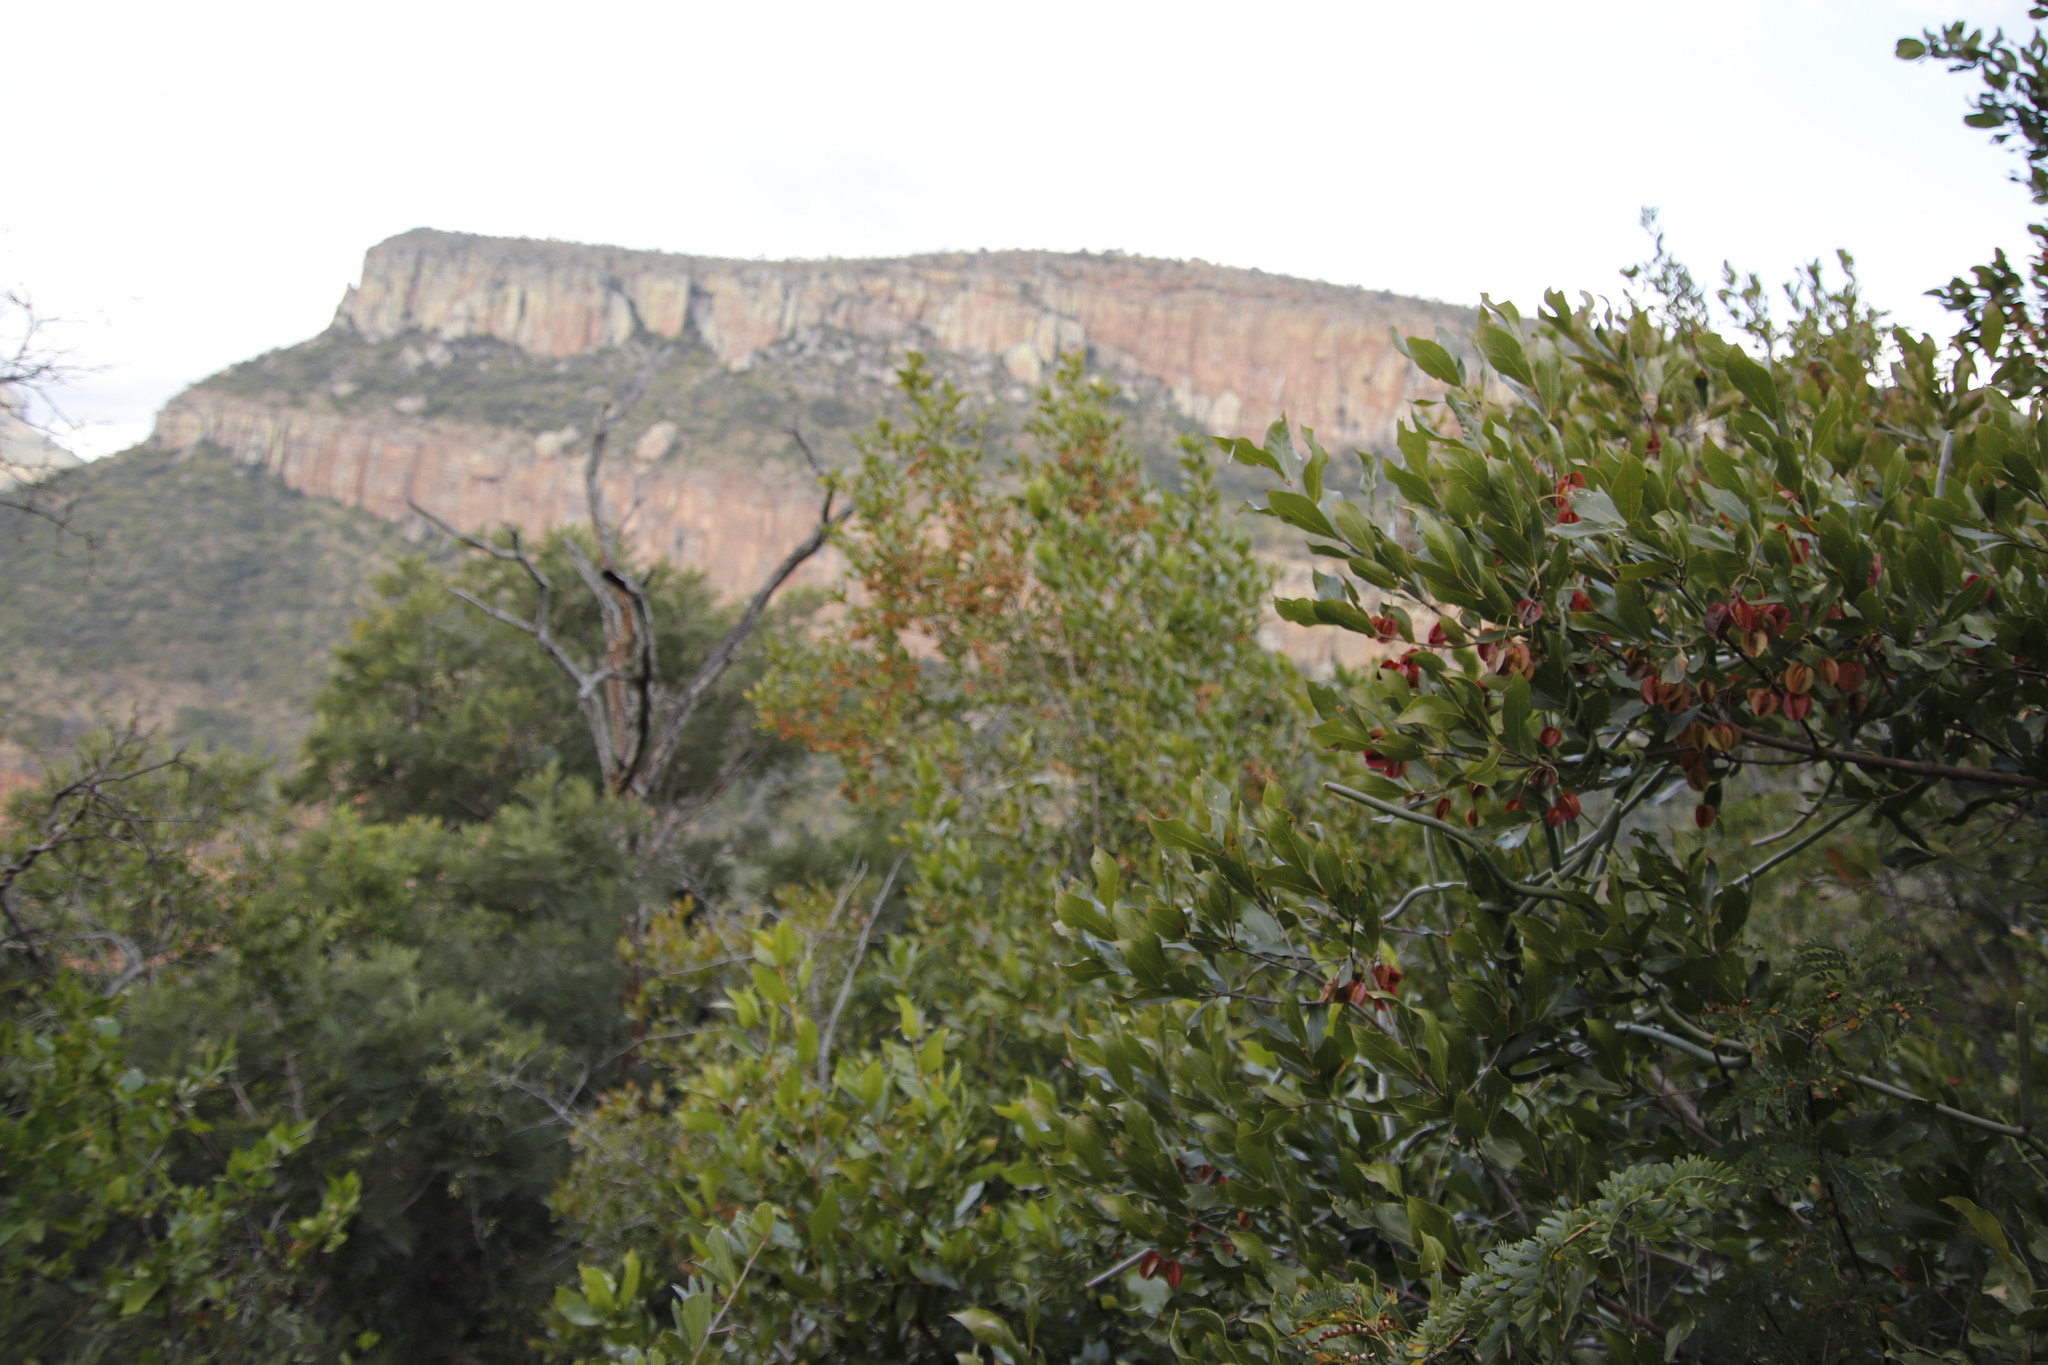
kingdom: Plantae
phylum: Tracheophyta
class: Magnoliopsida
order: Myrtales
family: Combretaceae
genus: Combretum
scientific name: Combretum kraussii
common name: Forest bushwillow
